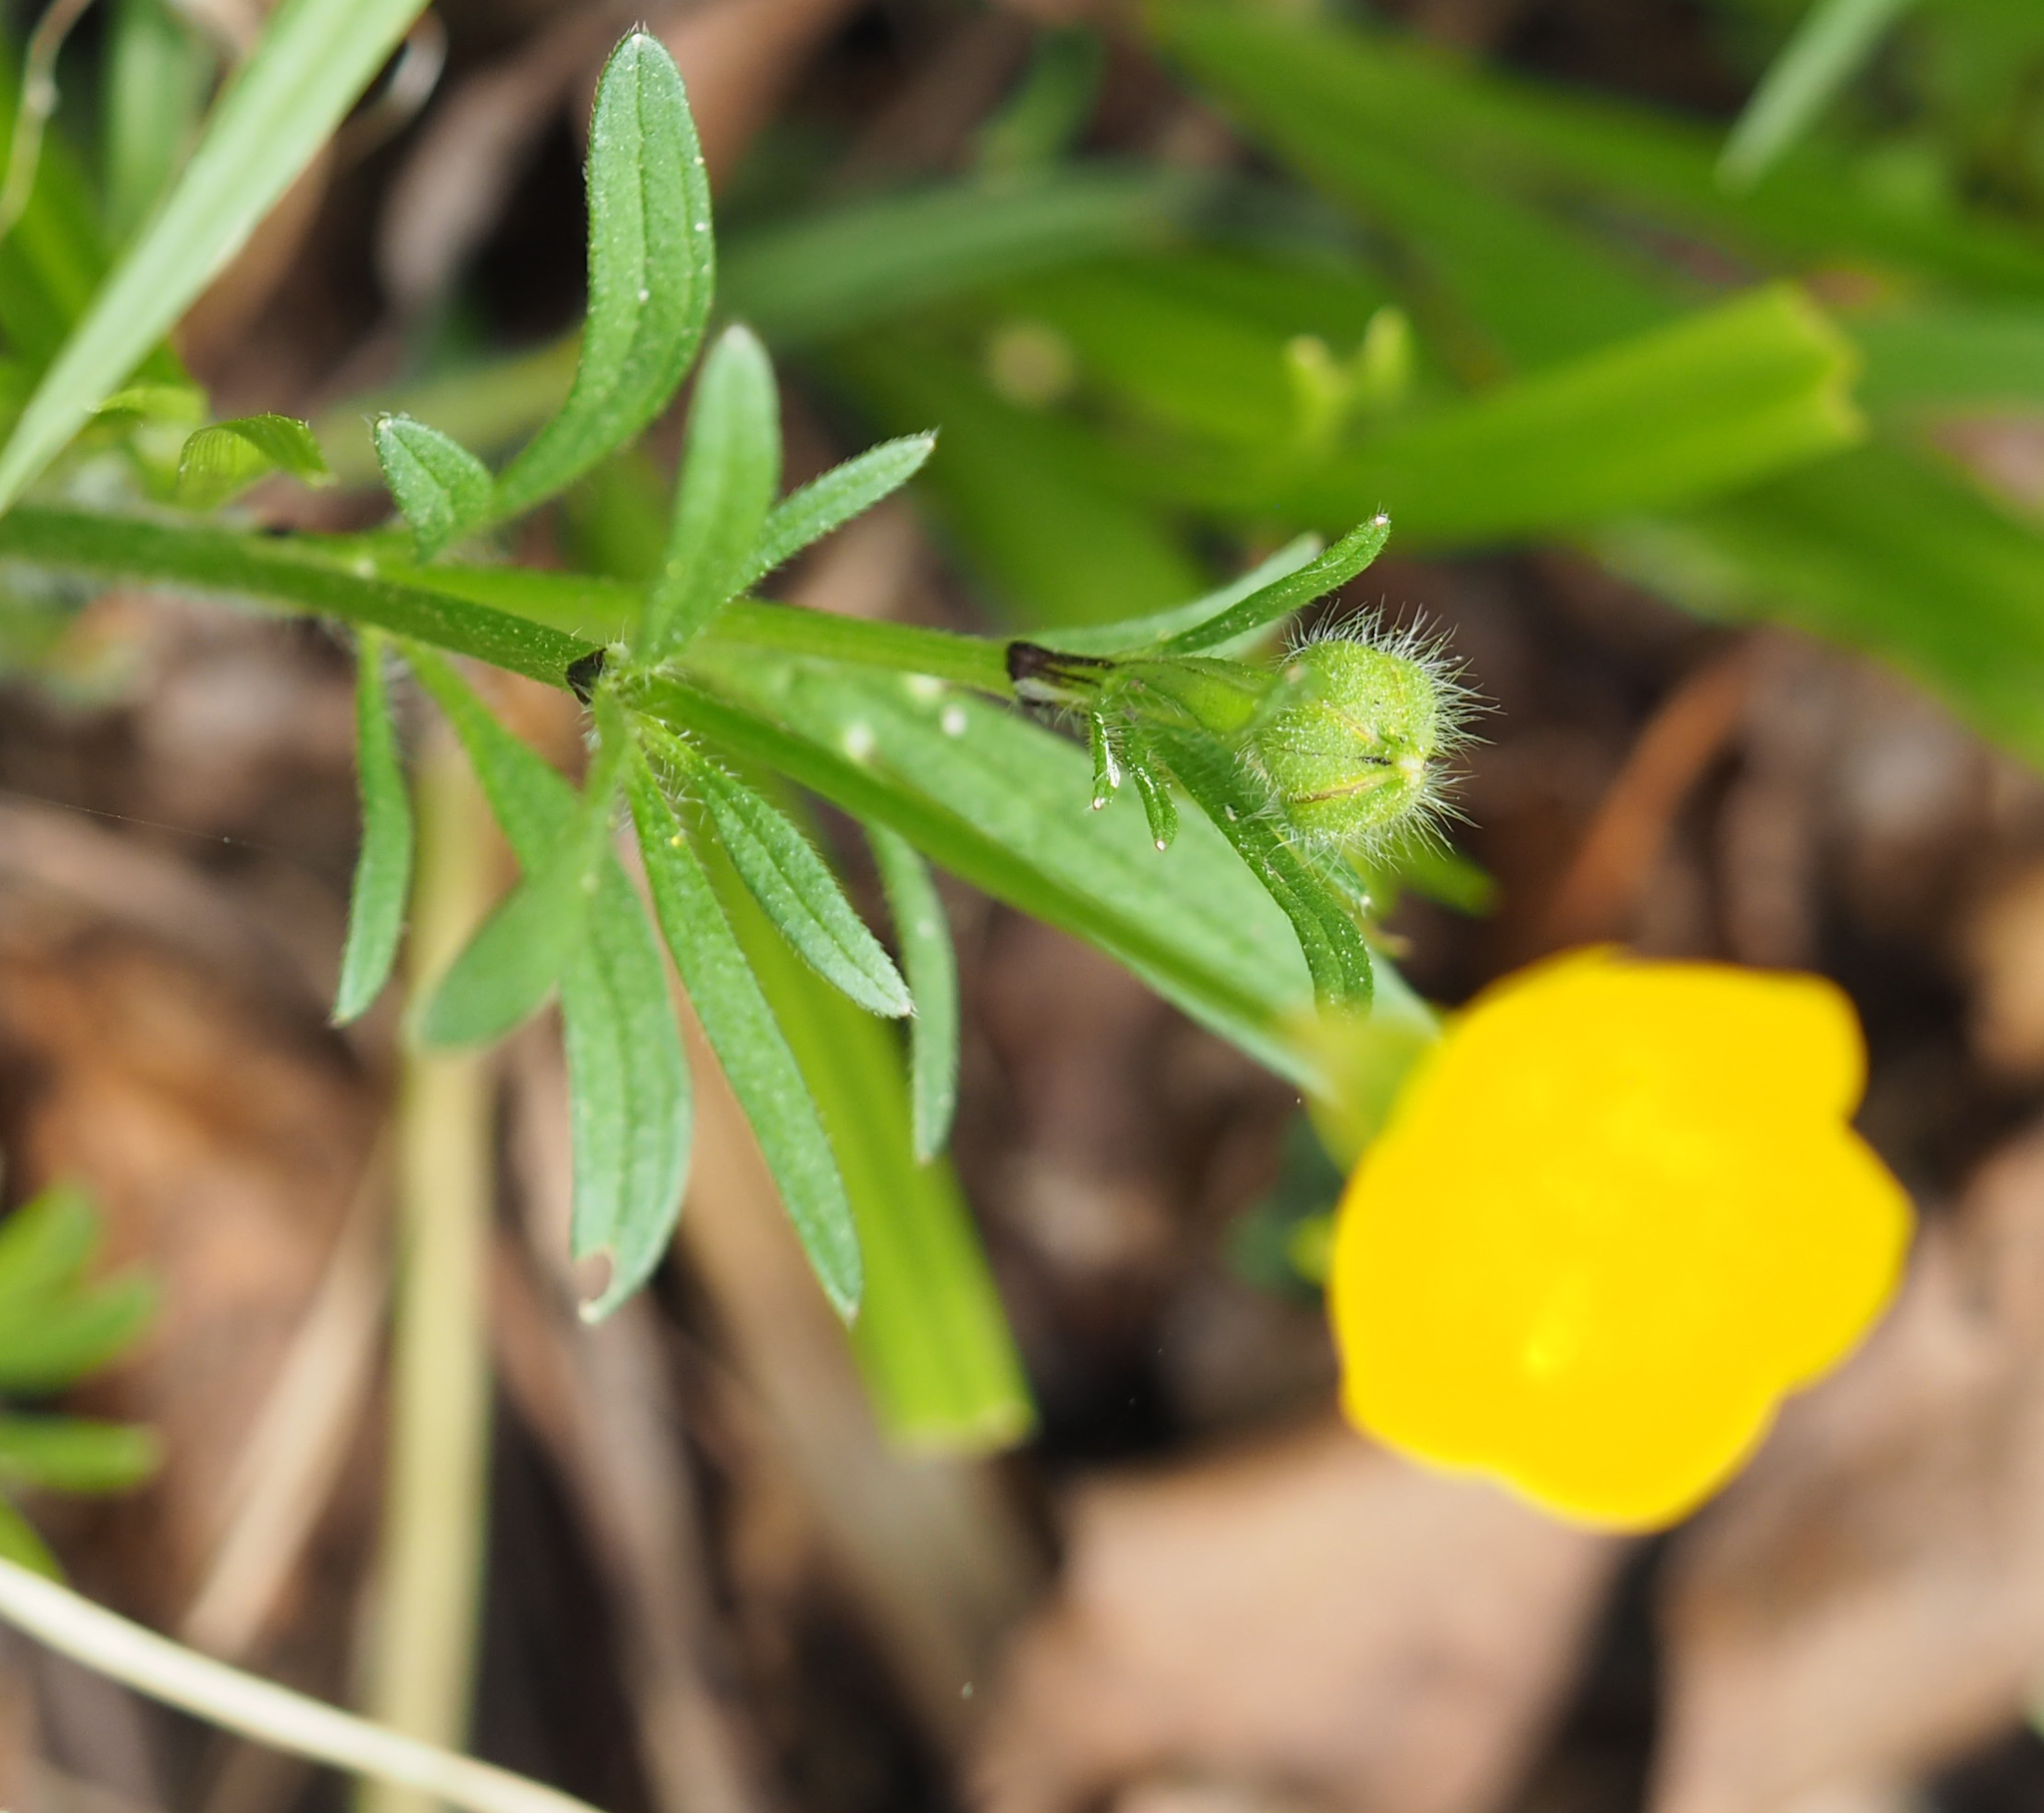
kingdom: Plantae
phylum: Tracheophyta
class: Magnoliopsida
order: Ranunculales
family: Ranunculaceae
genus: Ranunculus
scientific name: Ranunculus bulbosus
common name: Bulbous buttercup
